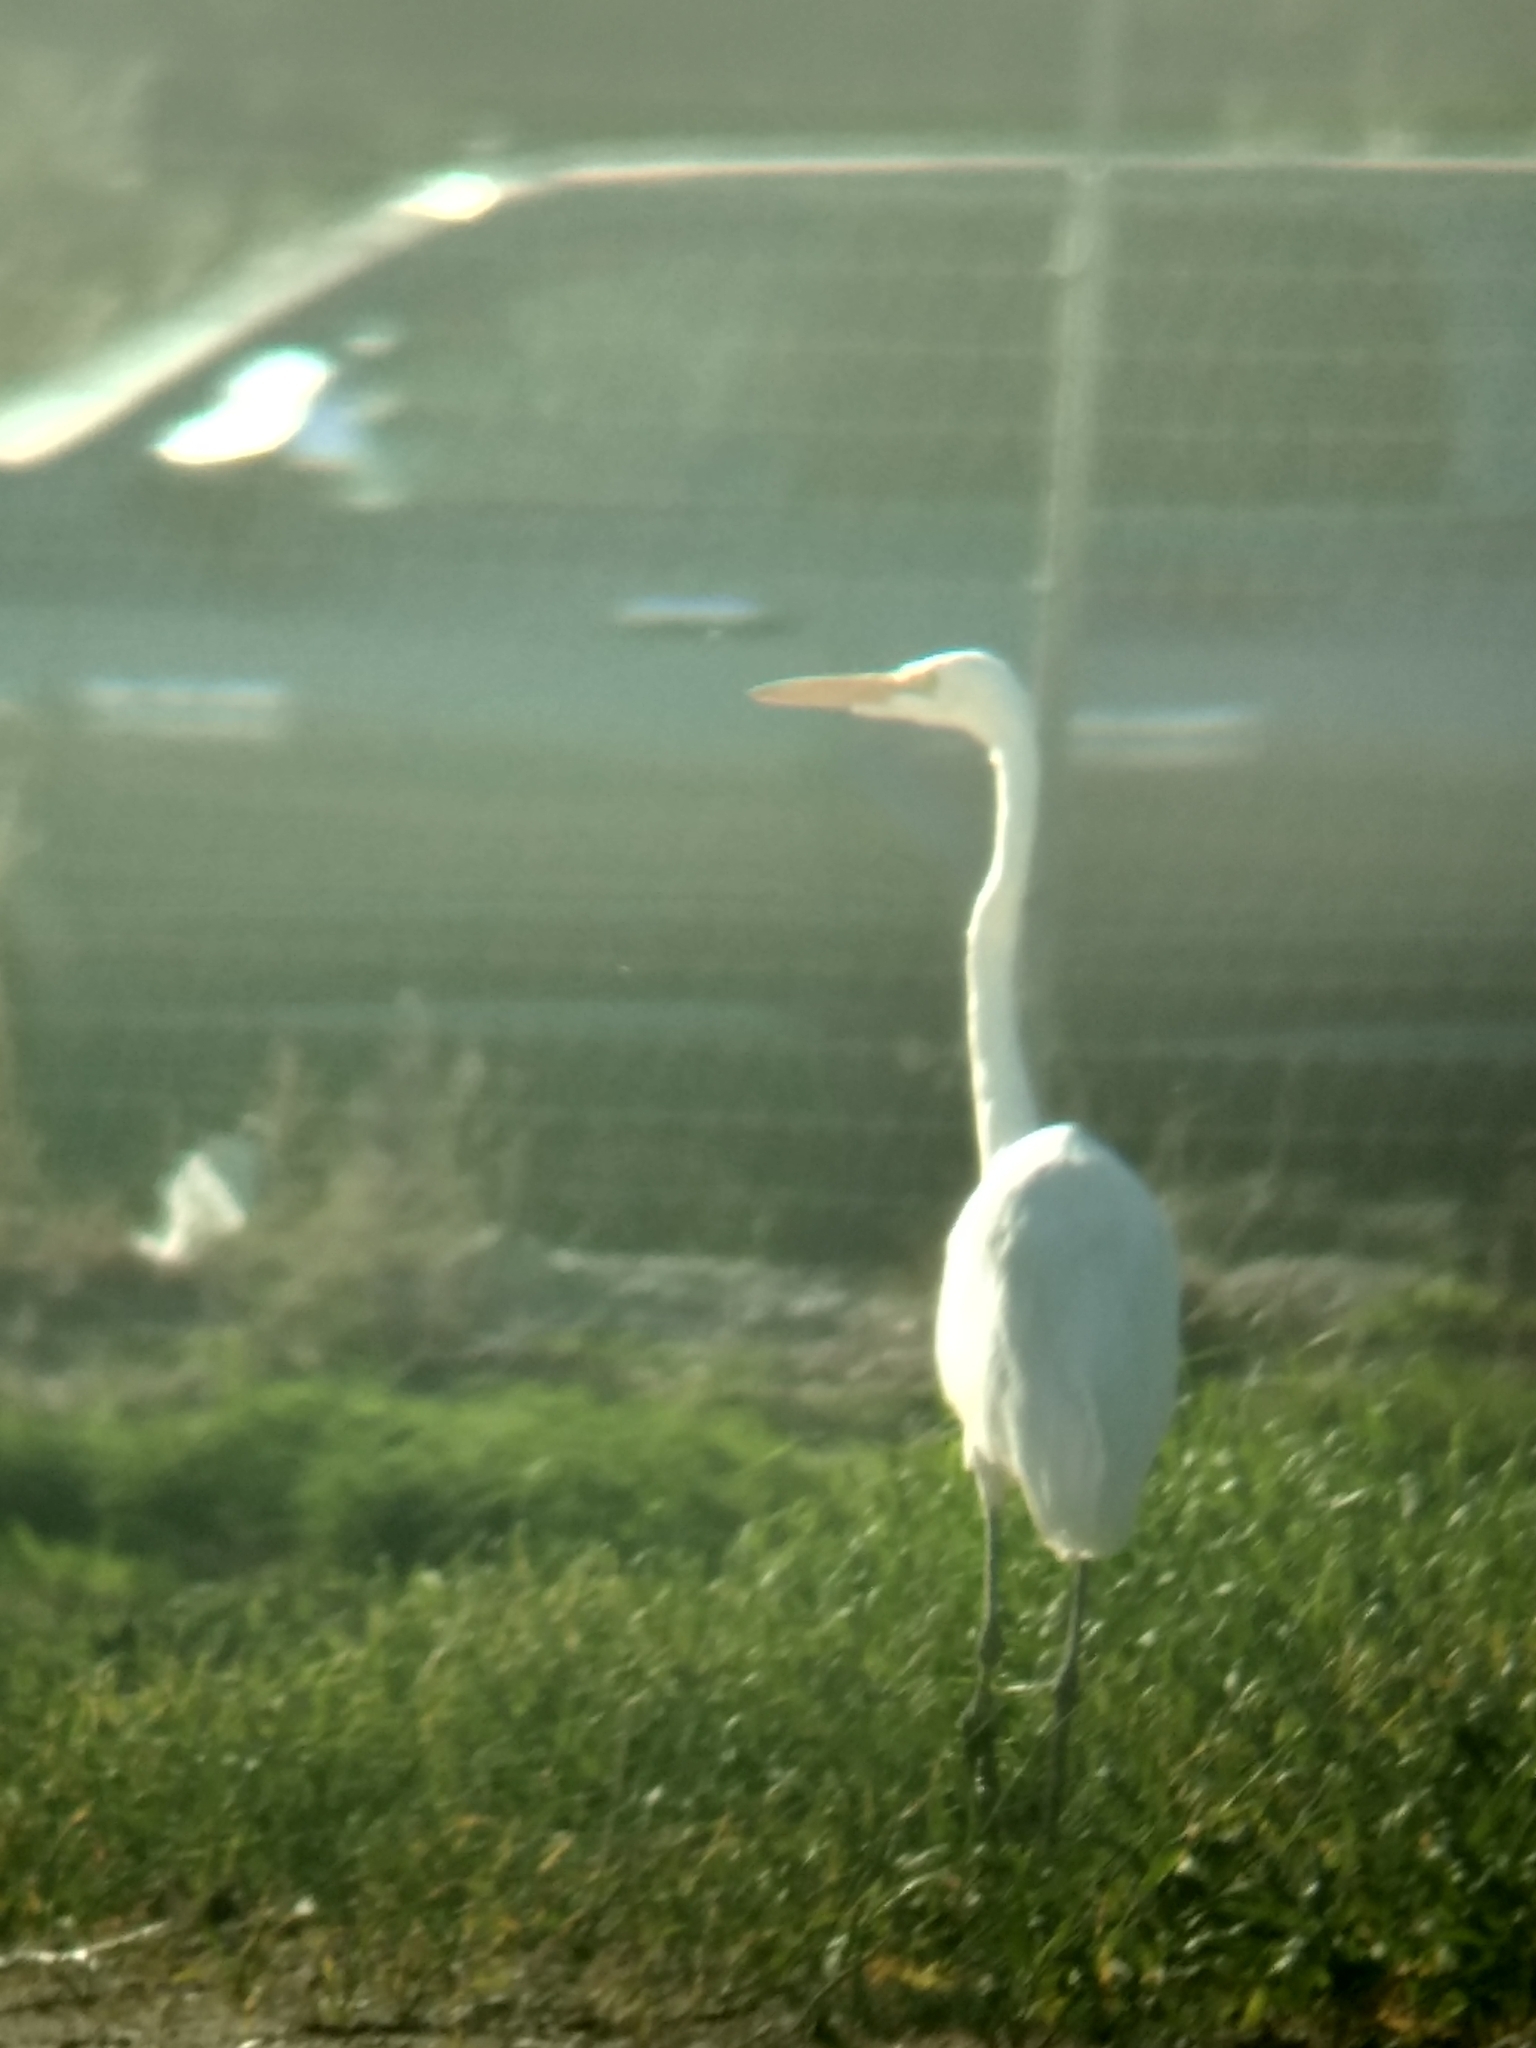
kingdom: Animalia
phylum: Chordata
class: Aves
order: Pelecaniformes
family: Ardeidae
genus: Ardea
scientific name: Ardea alba
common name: Great egret
